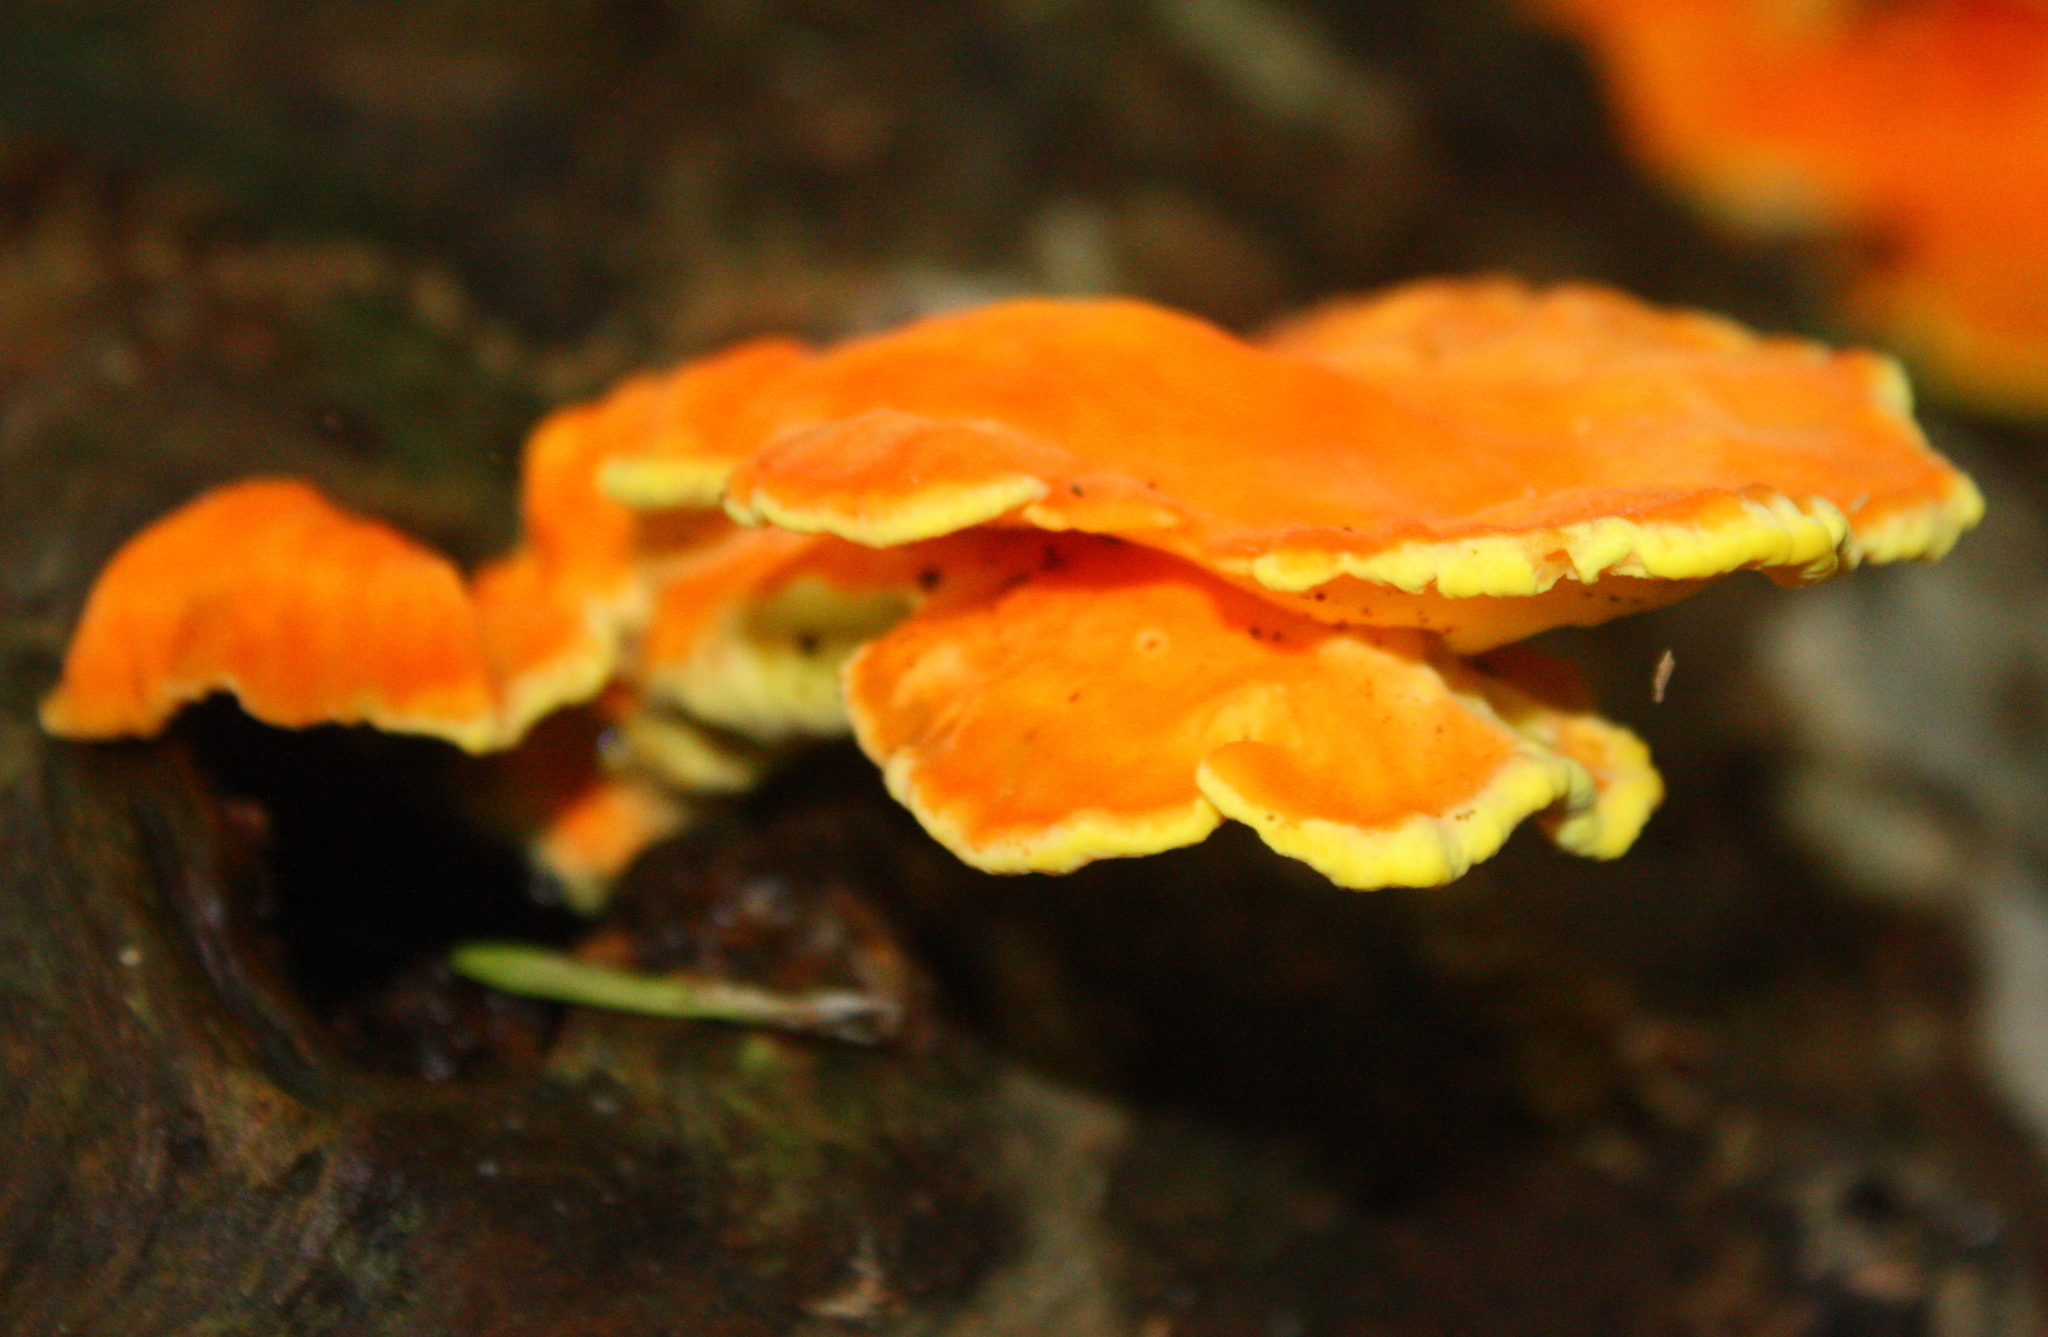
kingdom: Fungi
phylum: Basidiomycota
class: Agaricomycetes
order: Polyporales
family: Laetiporaceae
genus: Laetiporus
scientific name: Laetiporus sulphureus
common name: Chicken of the woods
